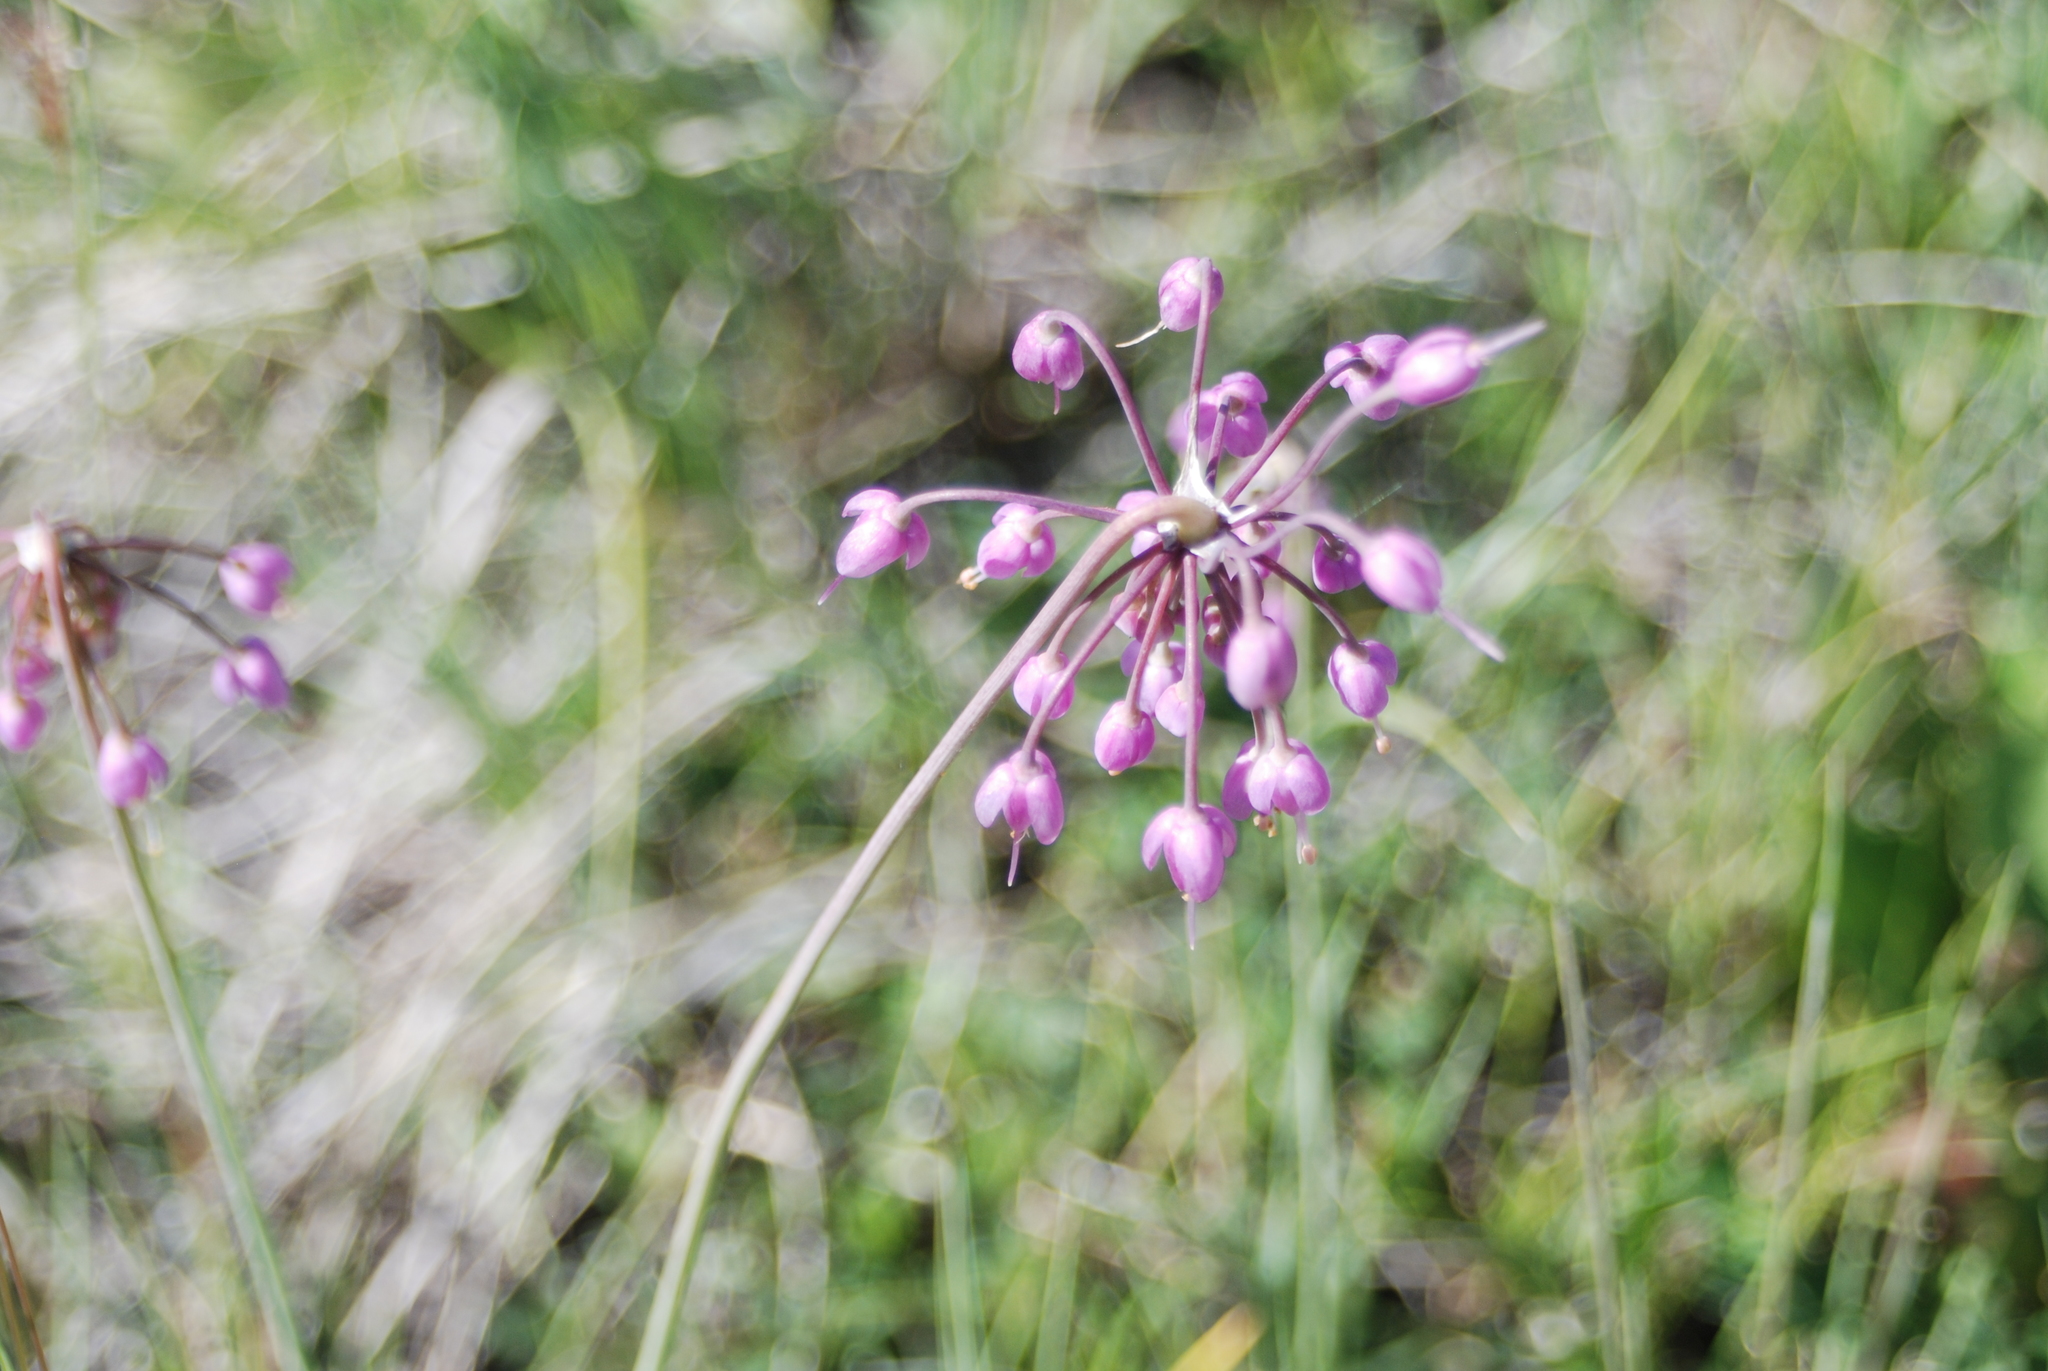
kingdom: Plantae
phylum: Tracheophyta
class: Liliopsida
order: Asparagales
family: Amaryllidaceae
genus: Allium
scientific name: Allium cernuum
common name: Nodding onion
